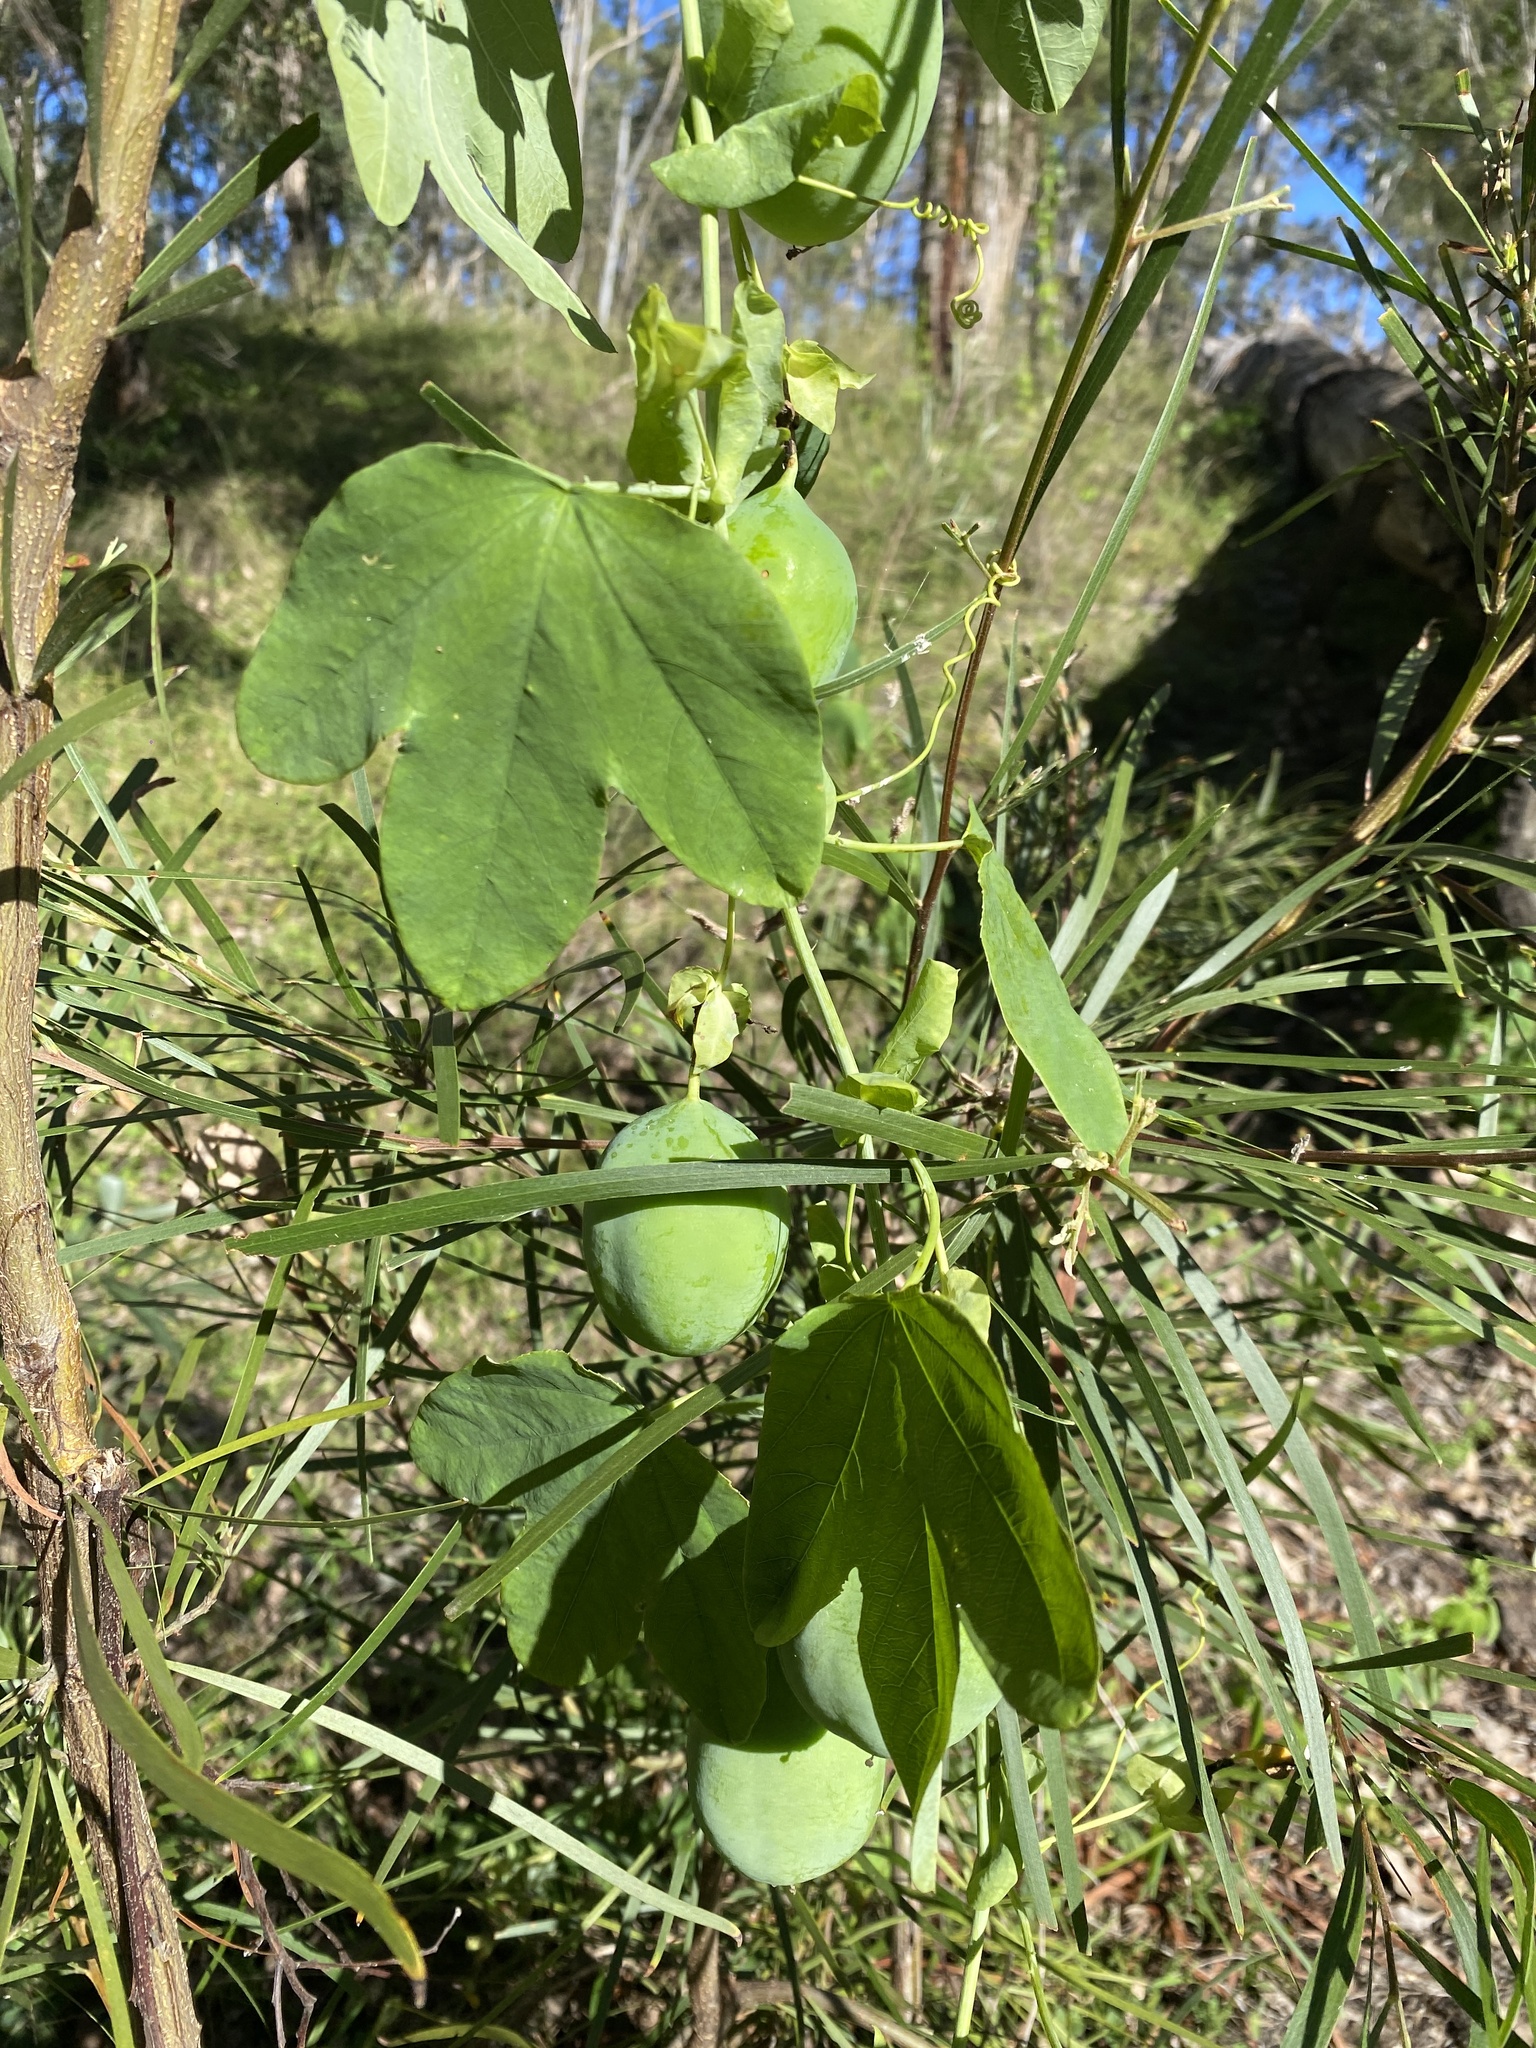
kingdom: Plantae
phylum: Tracheophyta
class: Magnoliopsida
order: Malpighiales
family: Passifloraceae
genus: Passiflora
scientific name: Passiflora subpeltata
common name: White passionflower
